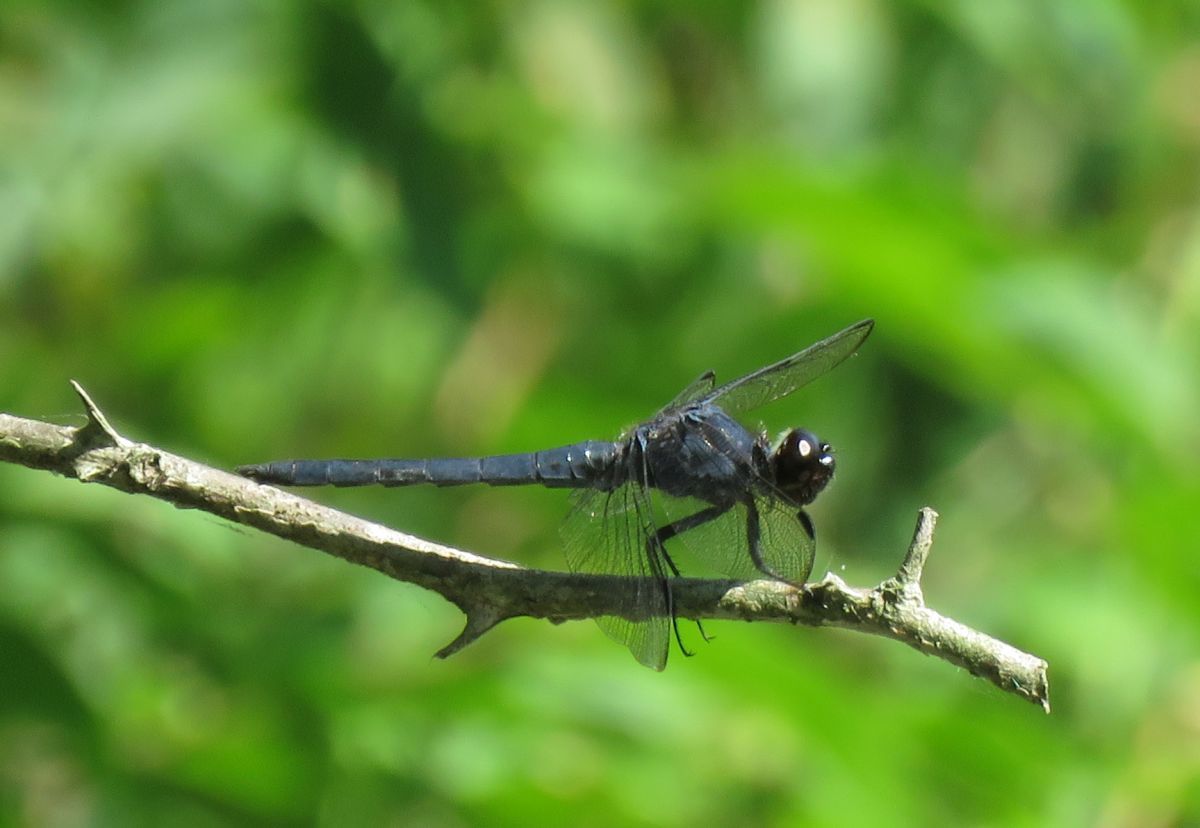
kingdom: Animalia
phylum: Arthropoda
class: Insecta
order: Odonata
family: Libellulidae
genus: Libellula
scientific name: Libellula incesta
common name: Slaty skimmer
